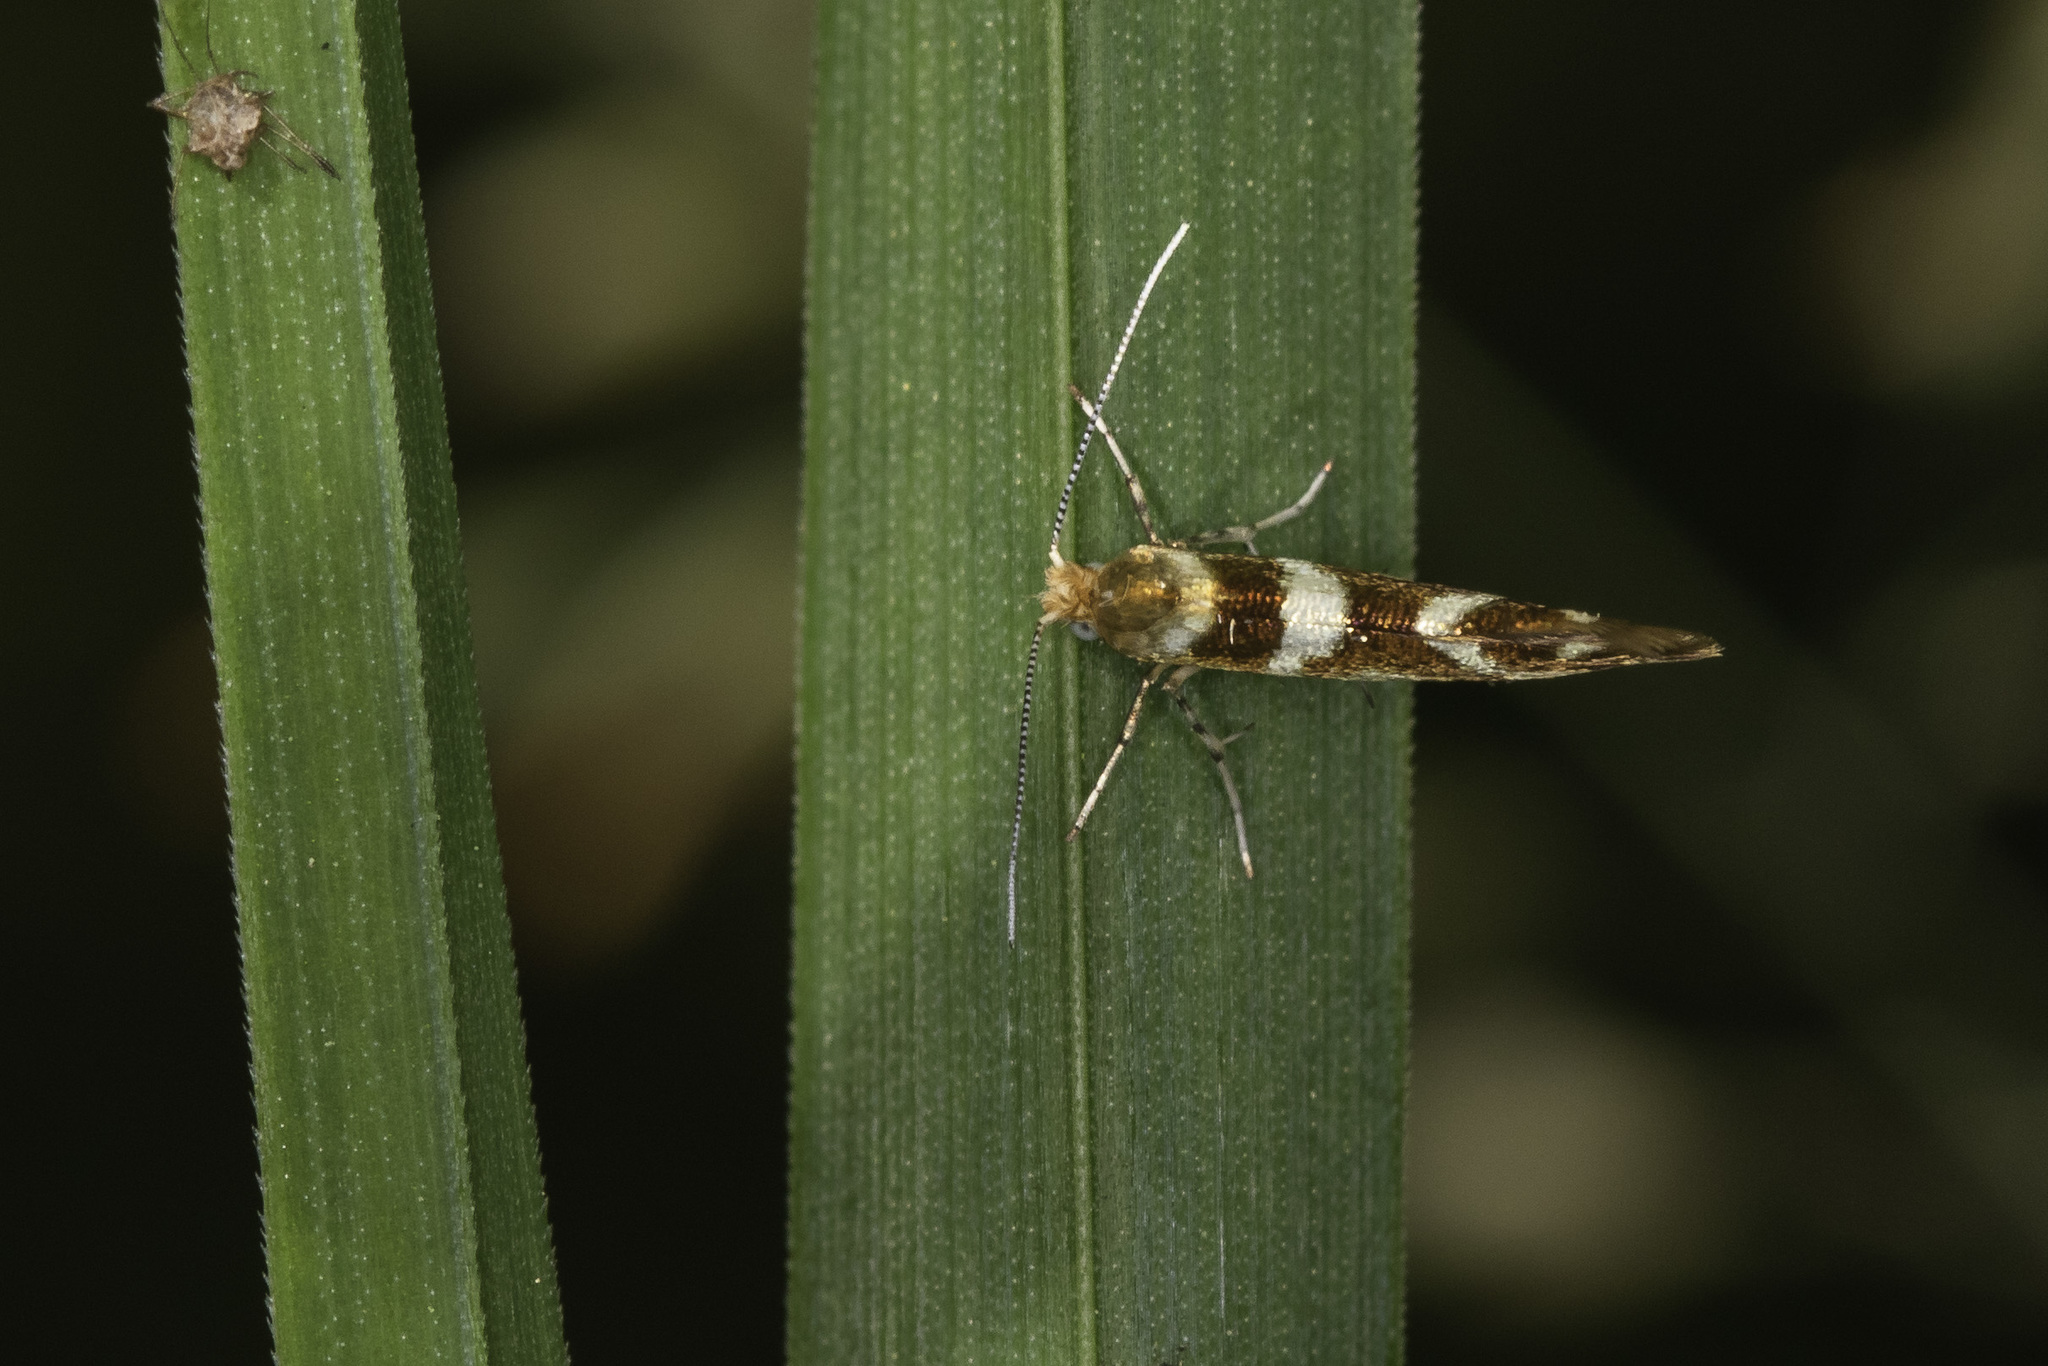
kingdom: Animalia
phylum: Arthropoda
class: Insecta
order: Lepidoptera
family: Argyresthiidae
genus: Argyresthia
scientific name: Argyresthia goedartella
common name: Golden argent
